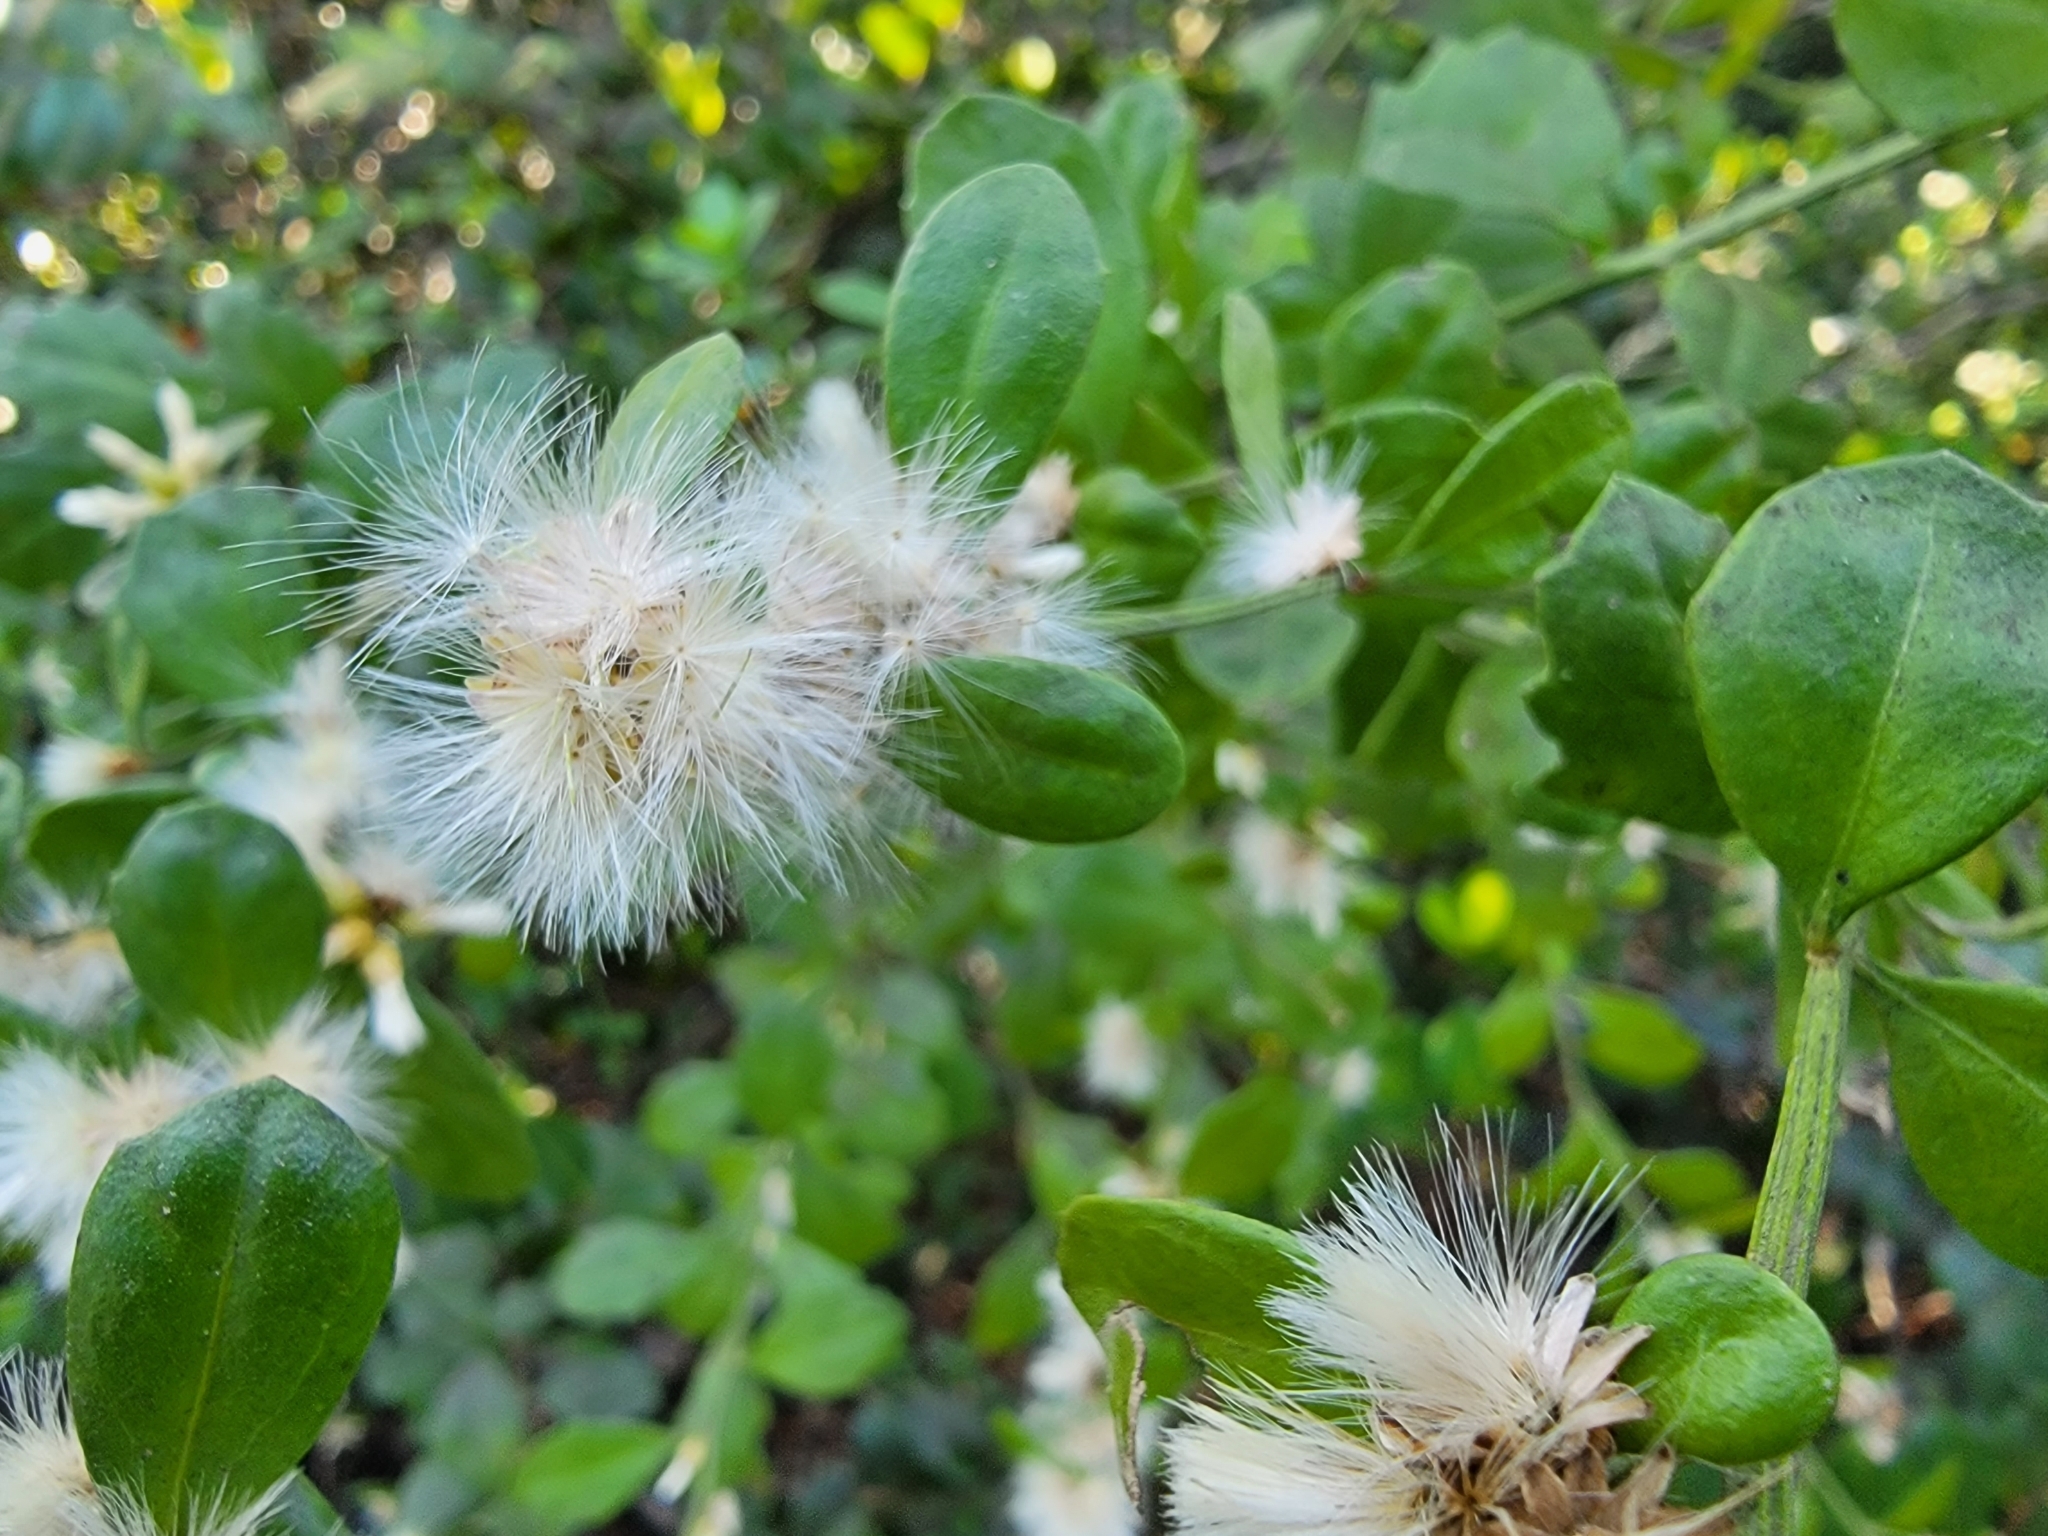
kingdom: Plantae
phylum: Tracheophyta
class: Magnoliopsida
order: Asterales
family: Asteraceae
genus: Baccharis
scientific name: Baccharis glomeruliflora
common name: Silverling groundsel bush
